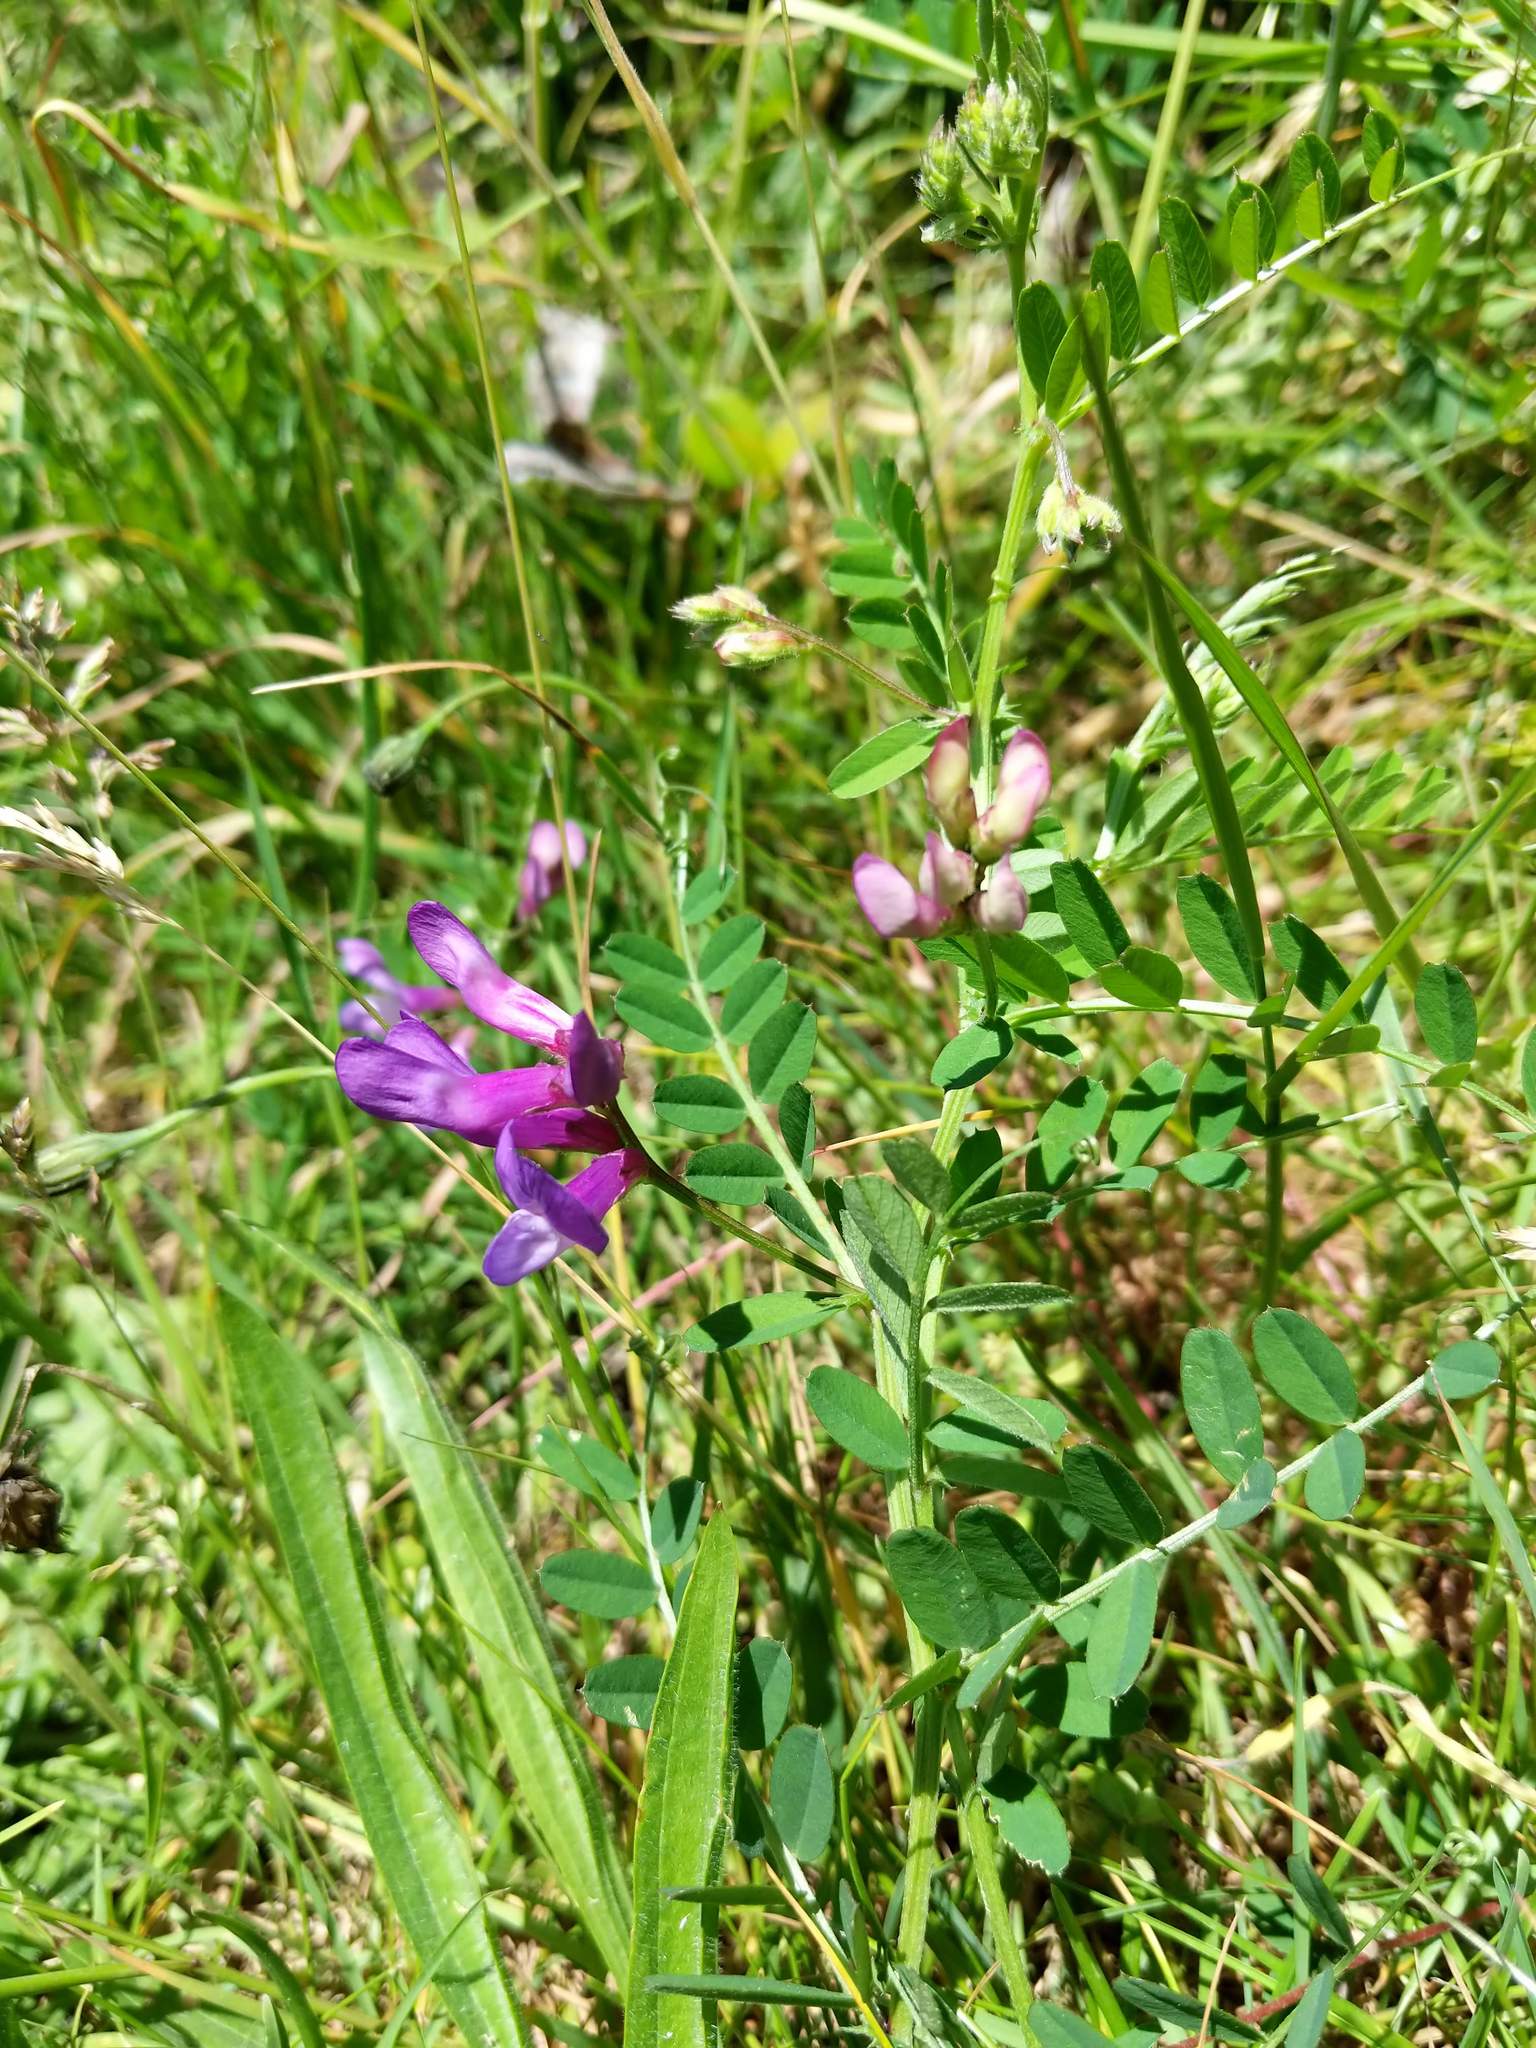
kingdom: Plantae
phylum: Tracheophyta
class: Magnoliopsida
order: Fabales
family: Fabaceae
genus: Vicia
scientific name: Vicia americana
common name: American vetch
